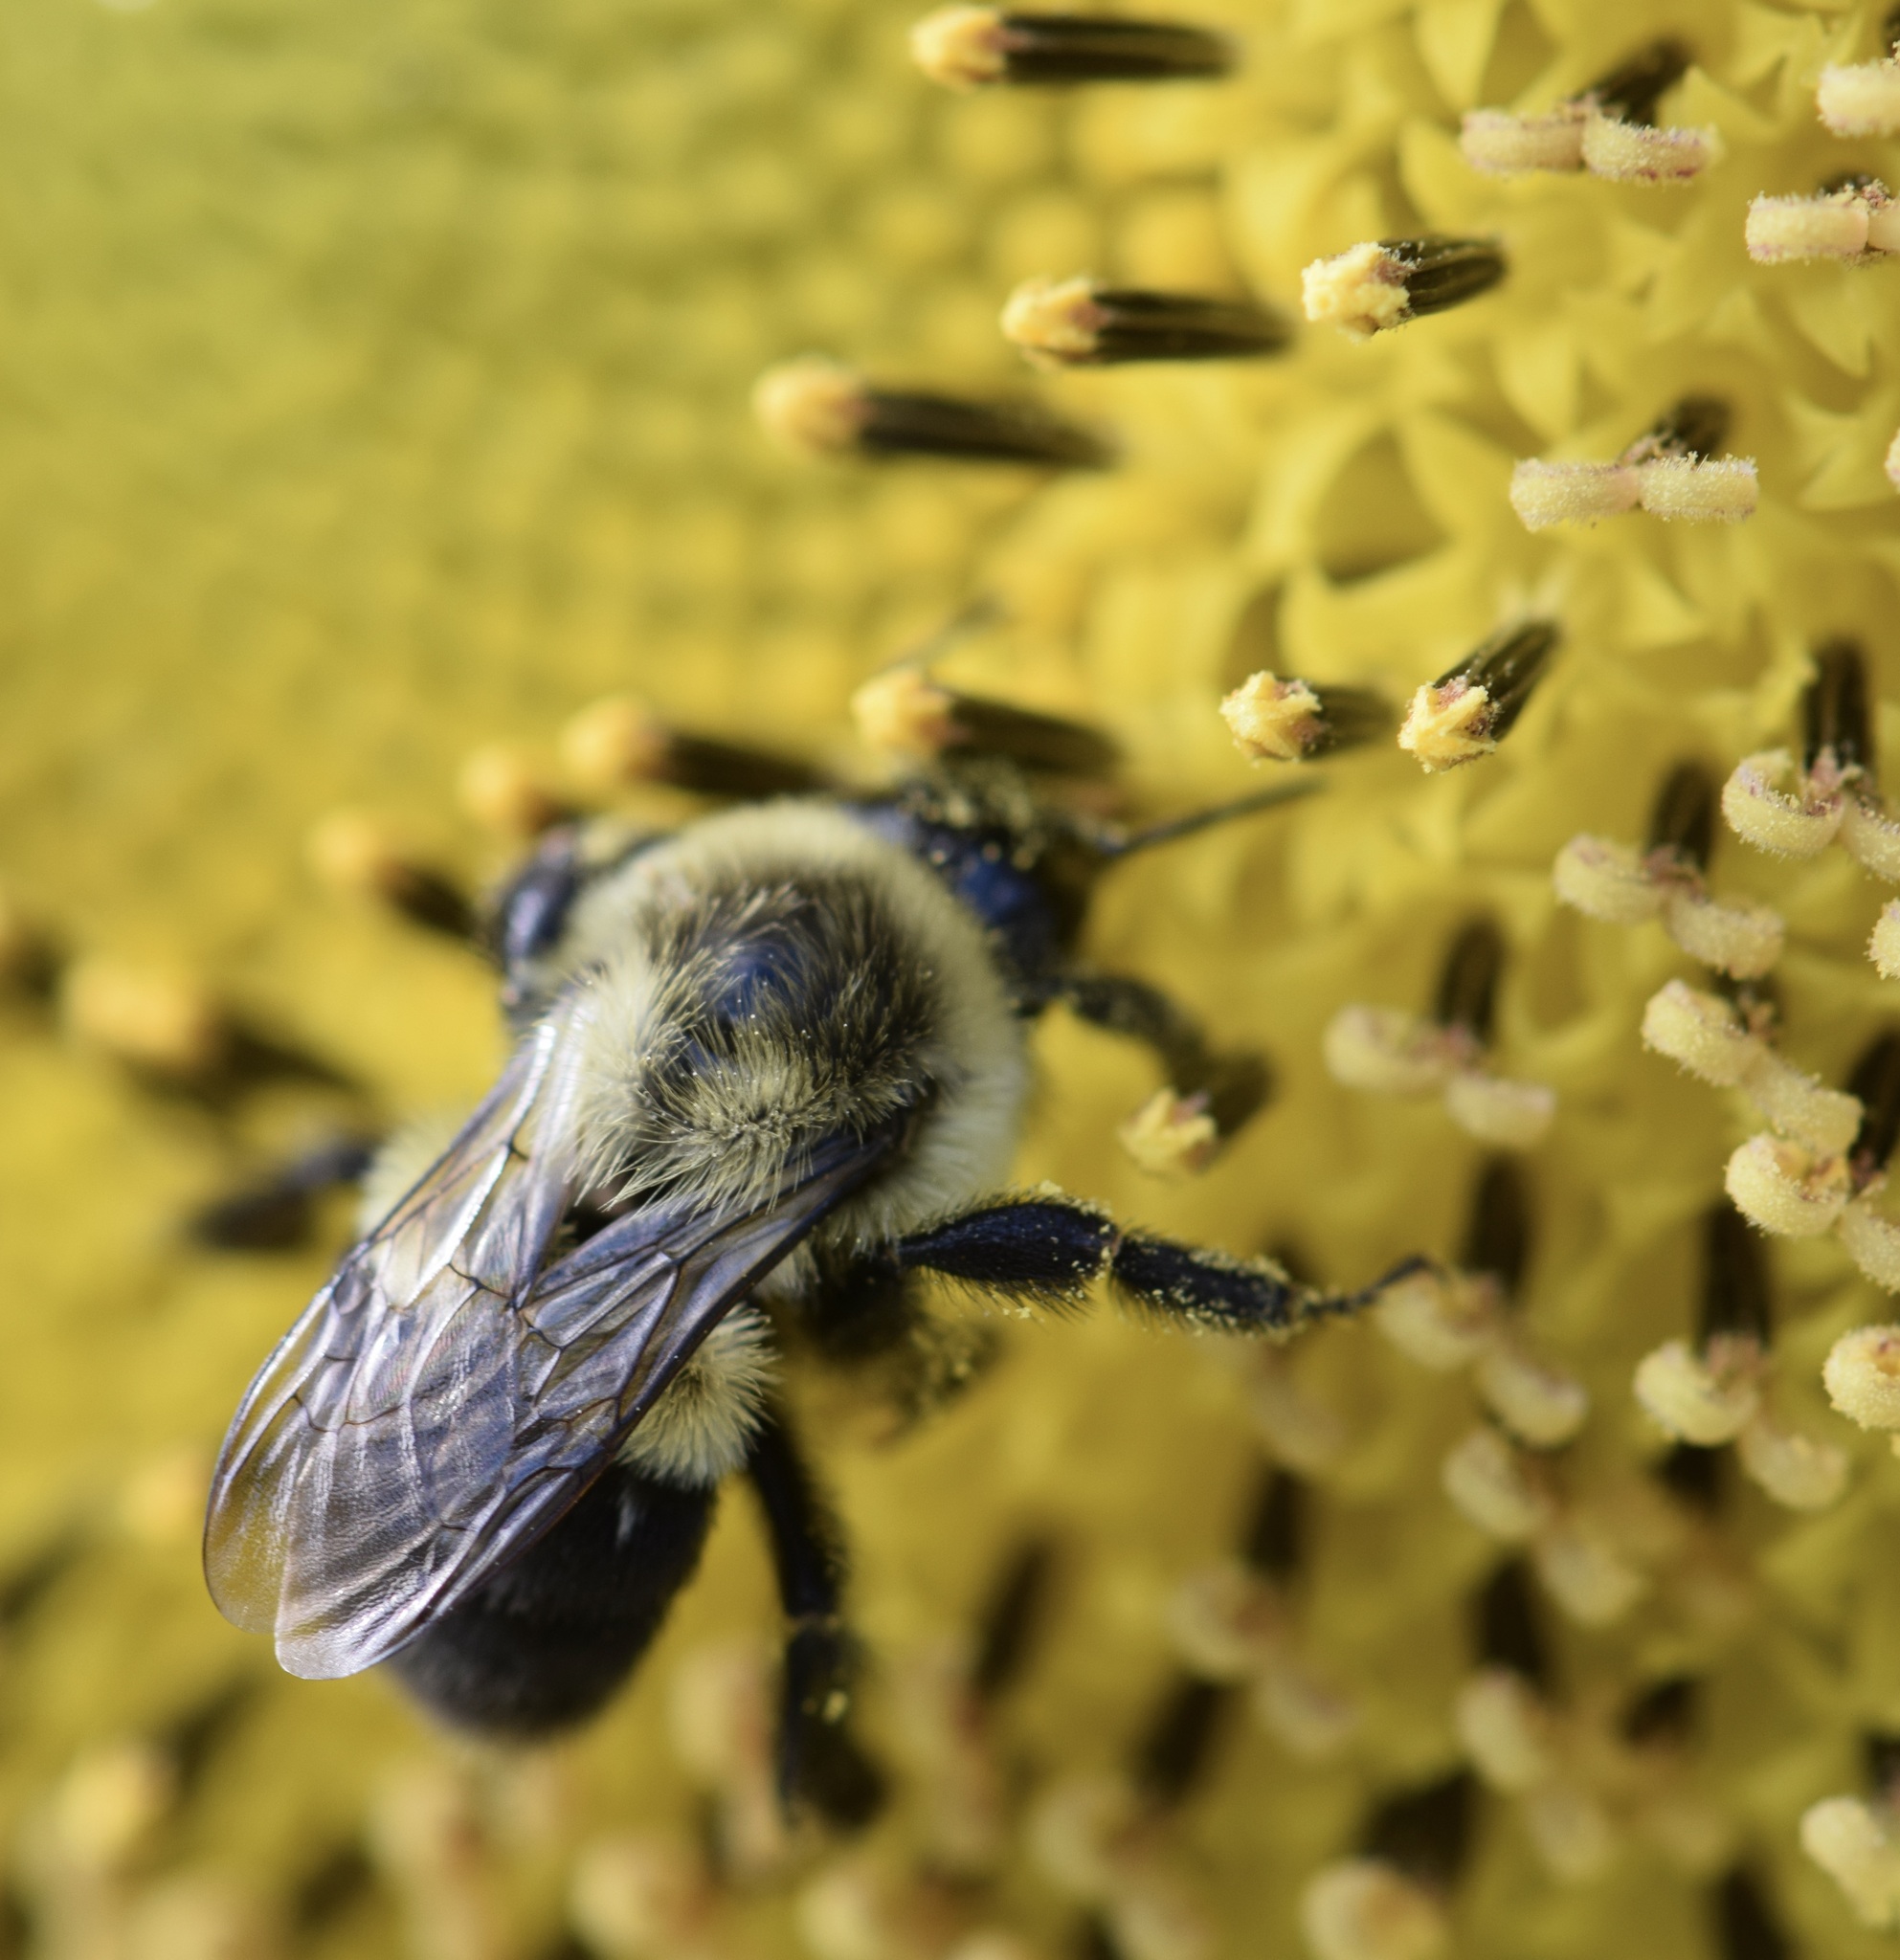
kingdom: Animalia
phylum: Arthropoda
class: Insecta
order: Hymenoptera
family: Apidae
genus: Bombus
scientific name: Bombus impatiens
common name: Common eastern bumble bee
